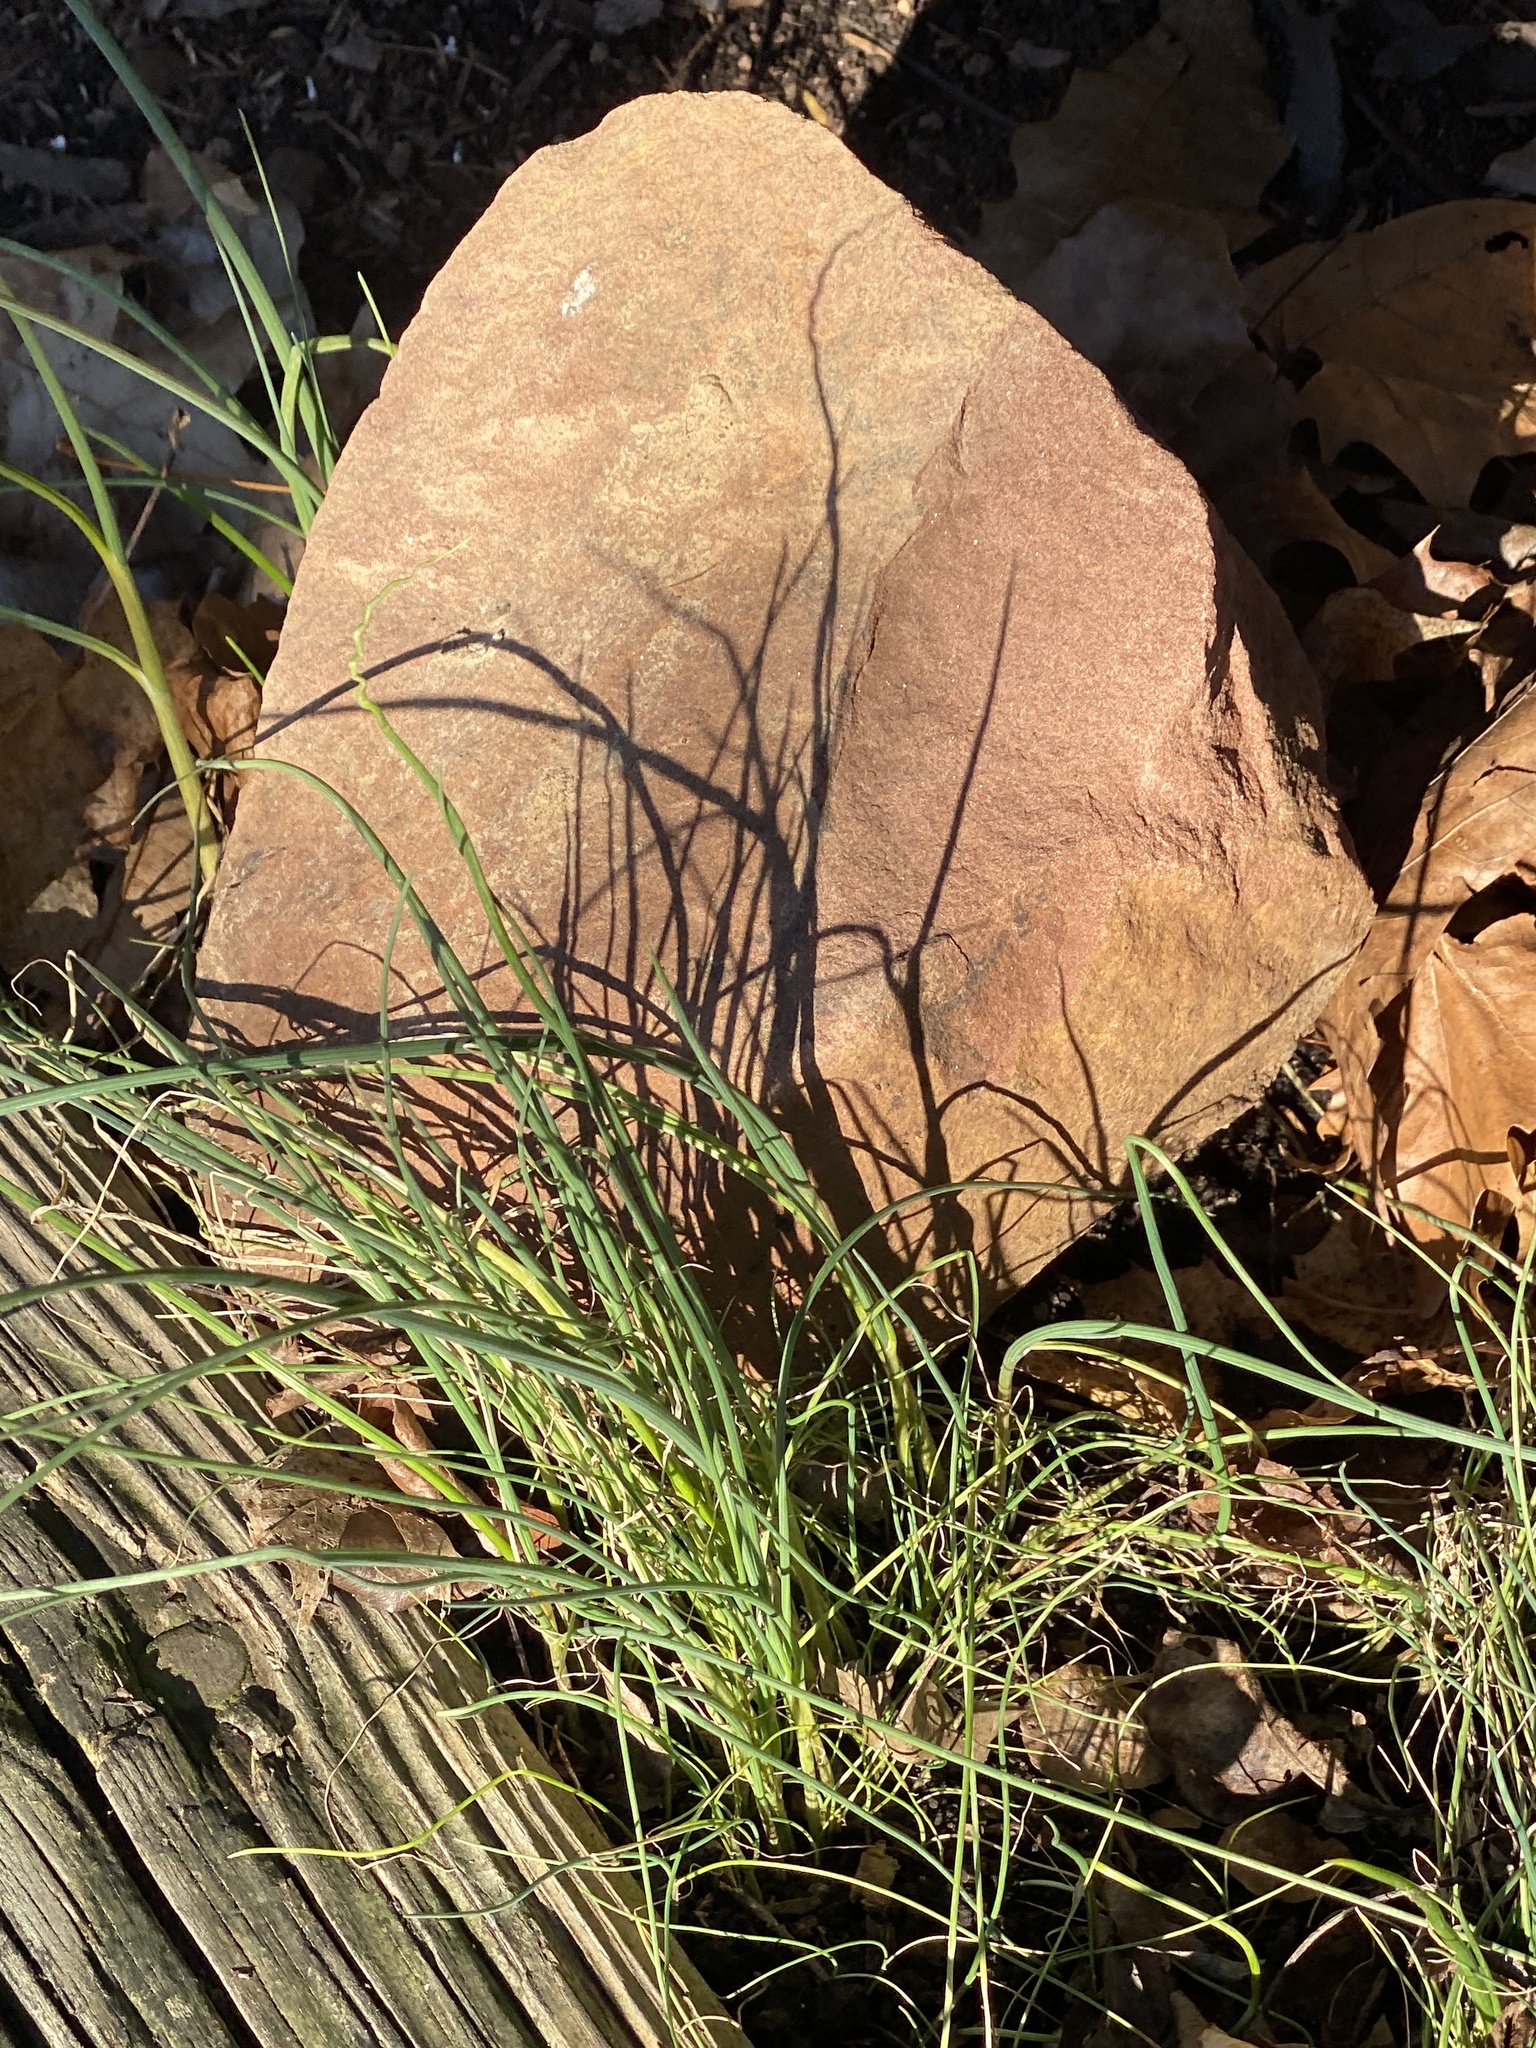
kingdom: Plantae
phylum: Tracheophyta
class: Liliopsida
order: Asparagales
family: Amaryllidaceae
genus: Allium
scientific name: Allium vineale
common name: Crow garlic
